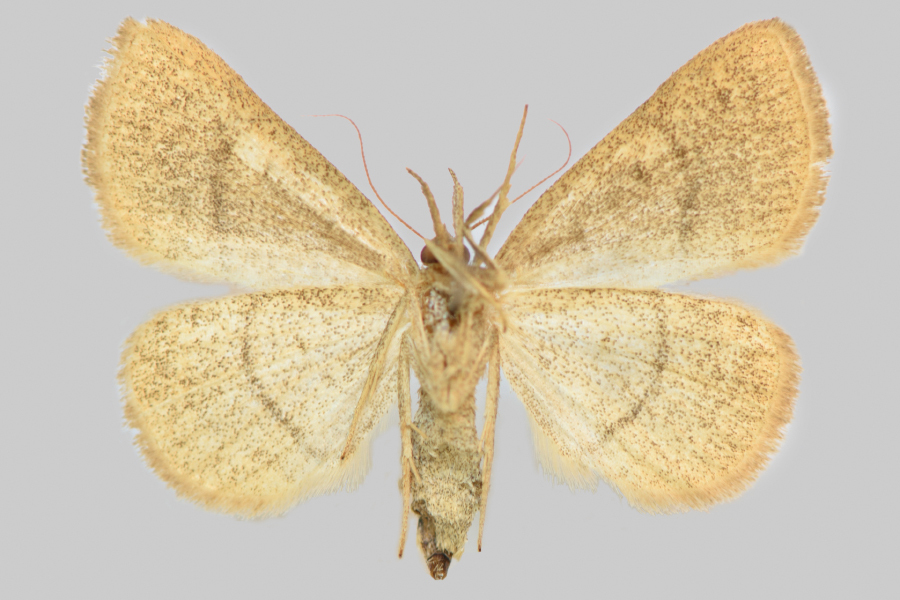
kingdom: Animalia
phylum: Arthropoda
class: Insecta
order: Lepidoptera
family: Erebidae
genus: Paracolax
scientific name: Paracolax tristalis
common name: Clay fan-foot
